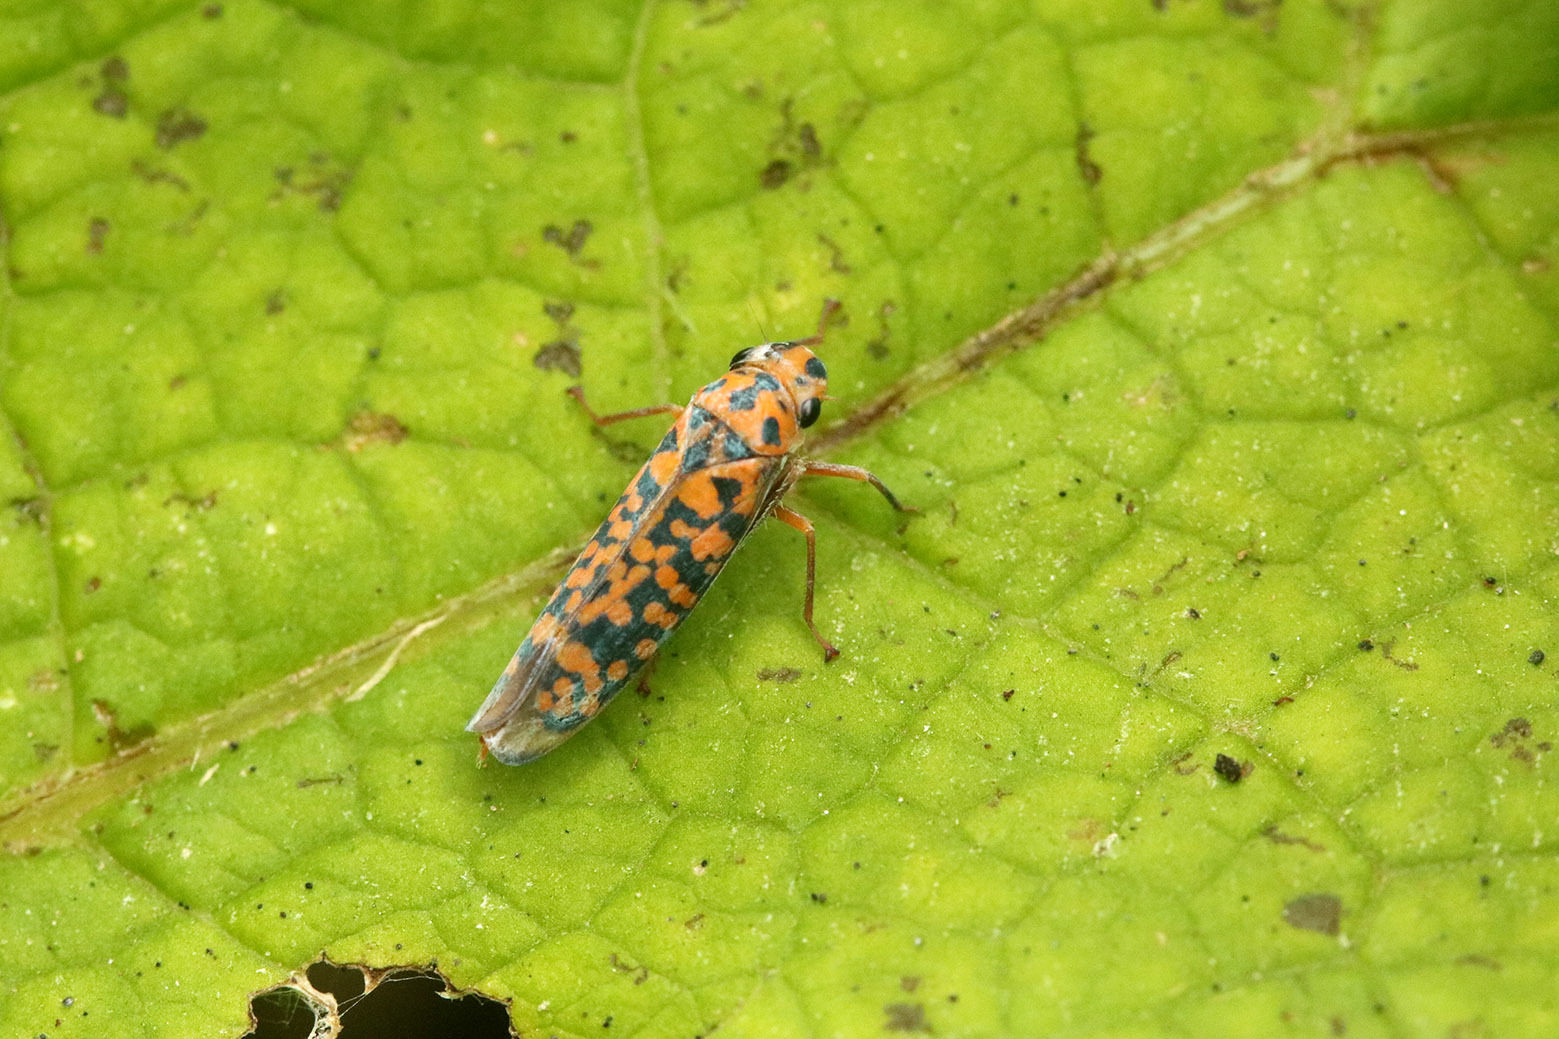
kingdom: Animalia
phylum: Arthropoda
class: Insecta
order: Hemiptera
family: Cicadellidae
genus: Pawiloma
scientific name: Pawiloma victima
